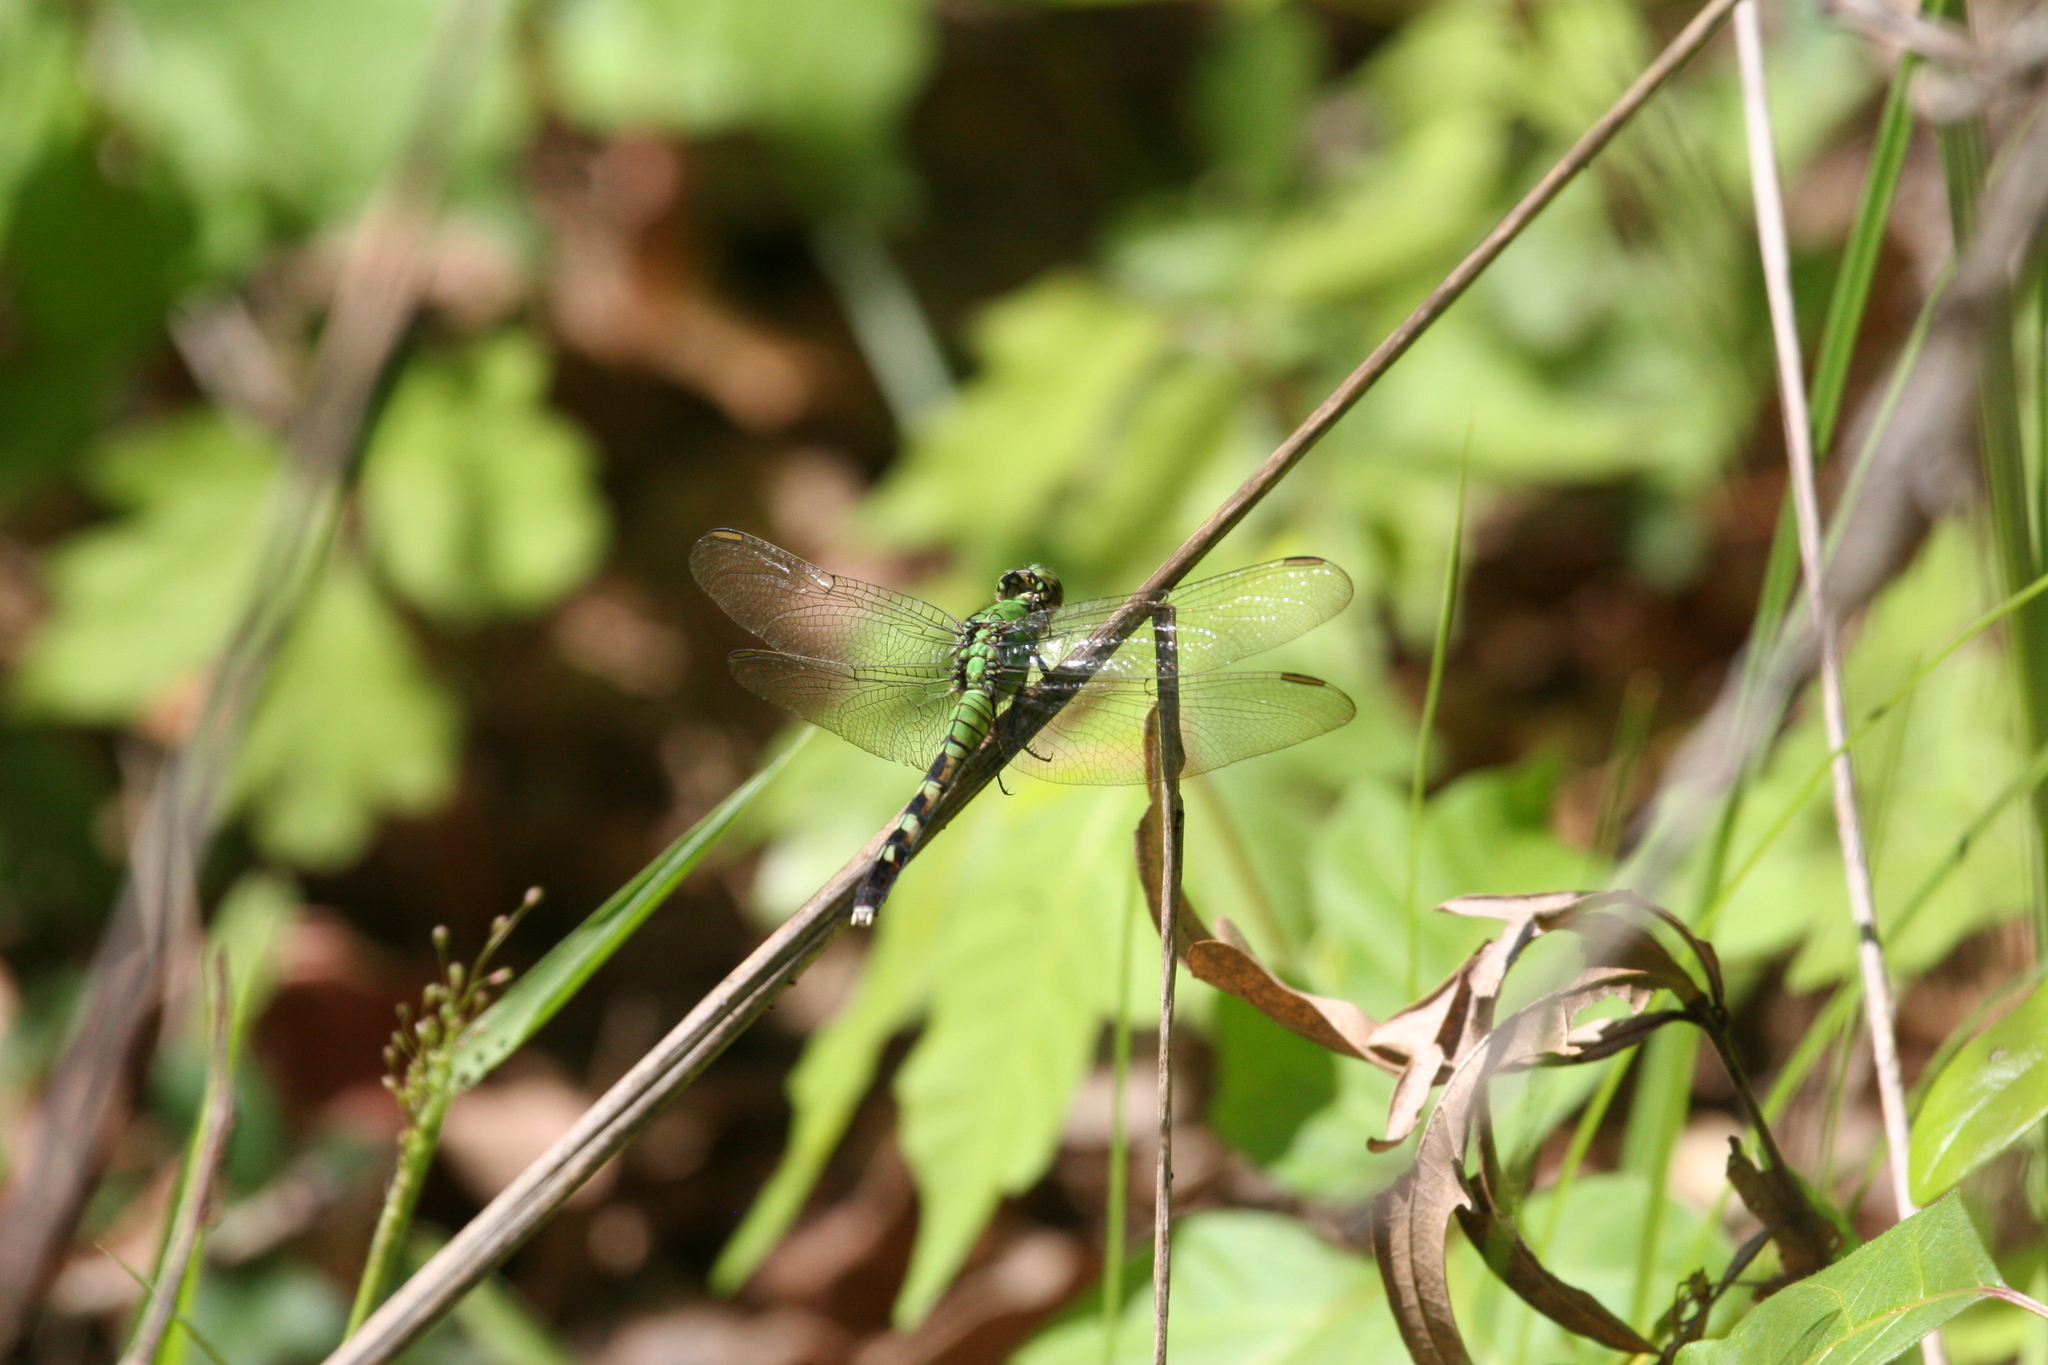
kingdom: Animalia
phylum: Arthropoda
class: Insecta
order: Odonata
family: Libellulidae
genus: Erythemis
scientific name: Erythemis simplicicollis
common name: Eastern pondhawk
